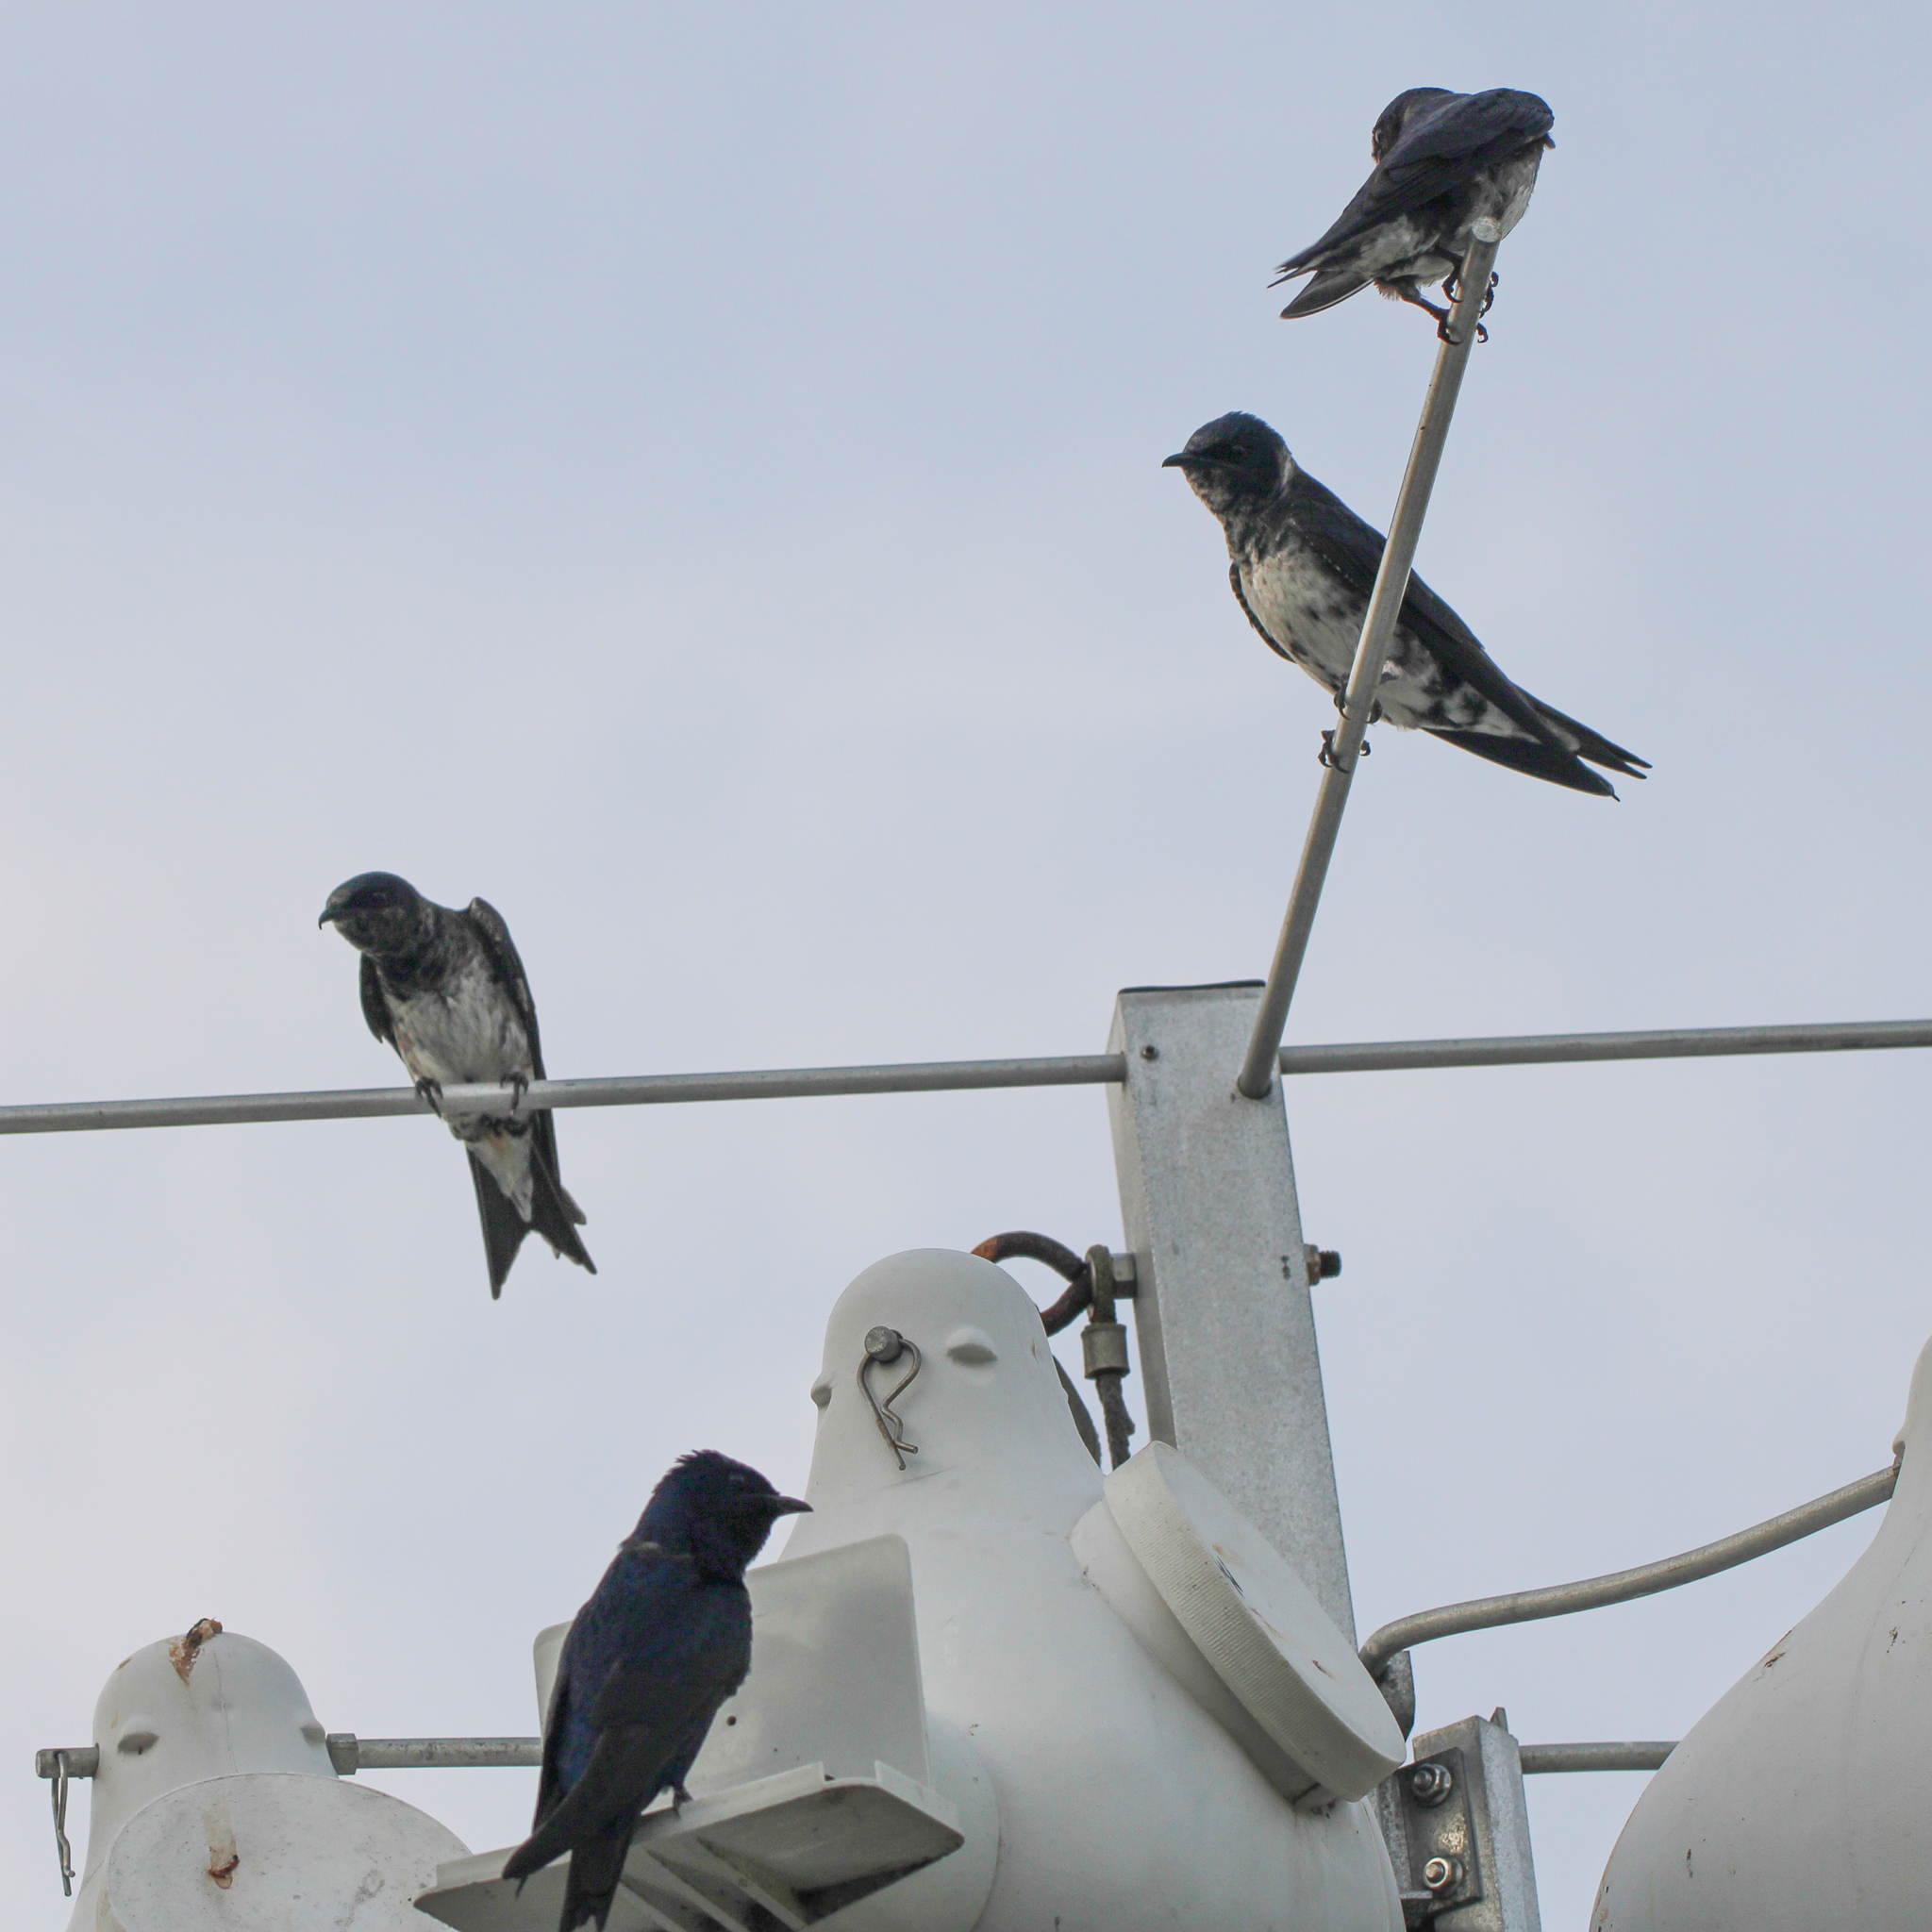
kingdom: Animalia
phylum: Chordata
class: Aves
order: Passeriformes
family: Hirundinidae
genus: Progne
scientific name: Progne subis
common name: Purple martin
